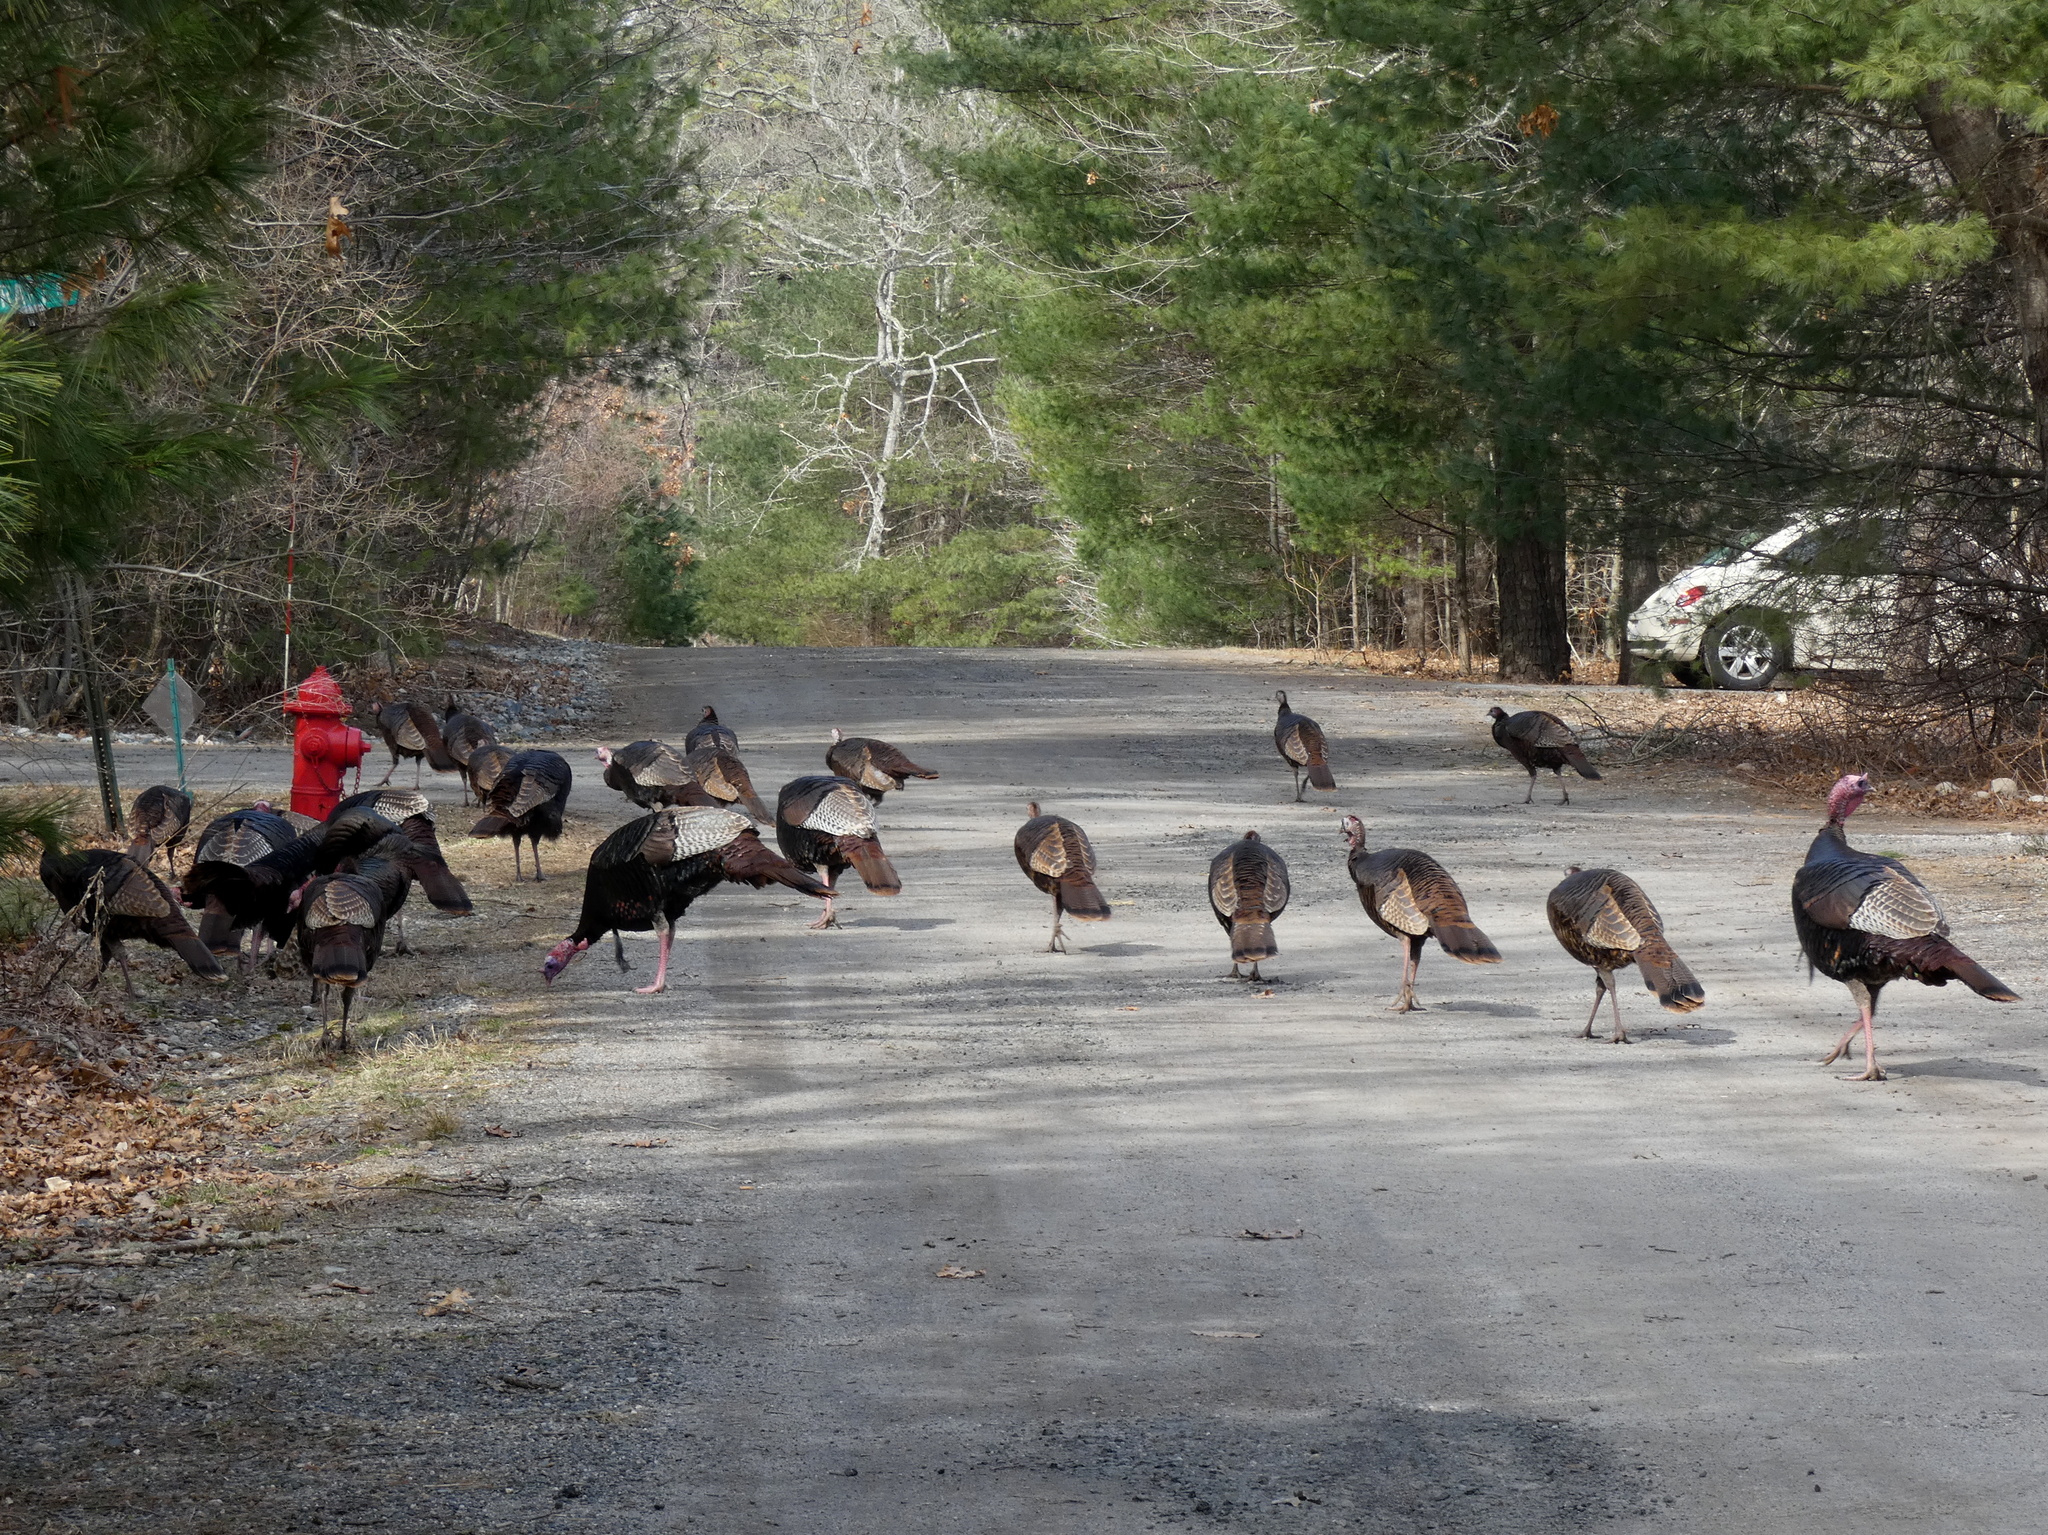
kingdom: Animalia
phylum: Chordata
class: Aves
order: Galliformes
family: Phasianidae
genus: Meleagris
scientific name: Meleagris gallopavo
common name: Wild turkey
